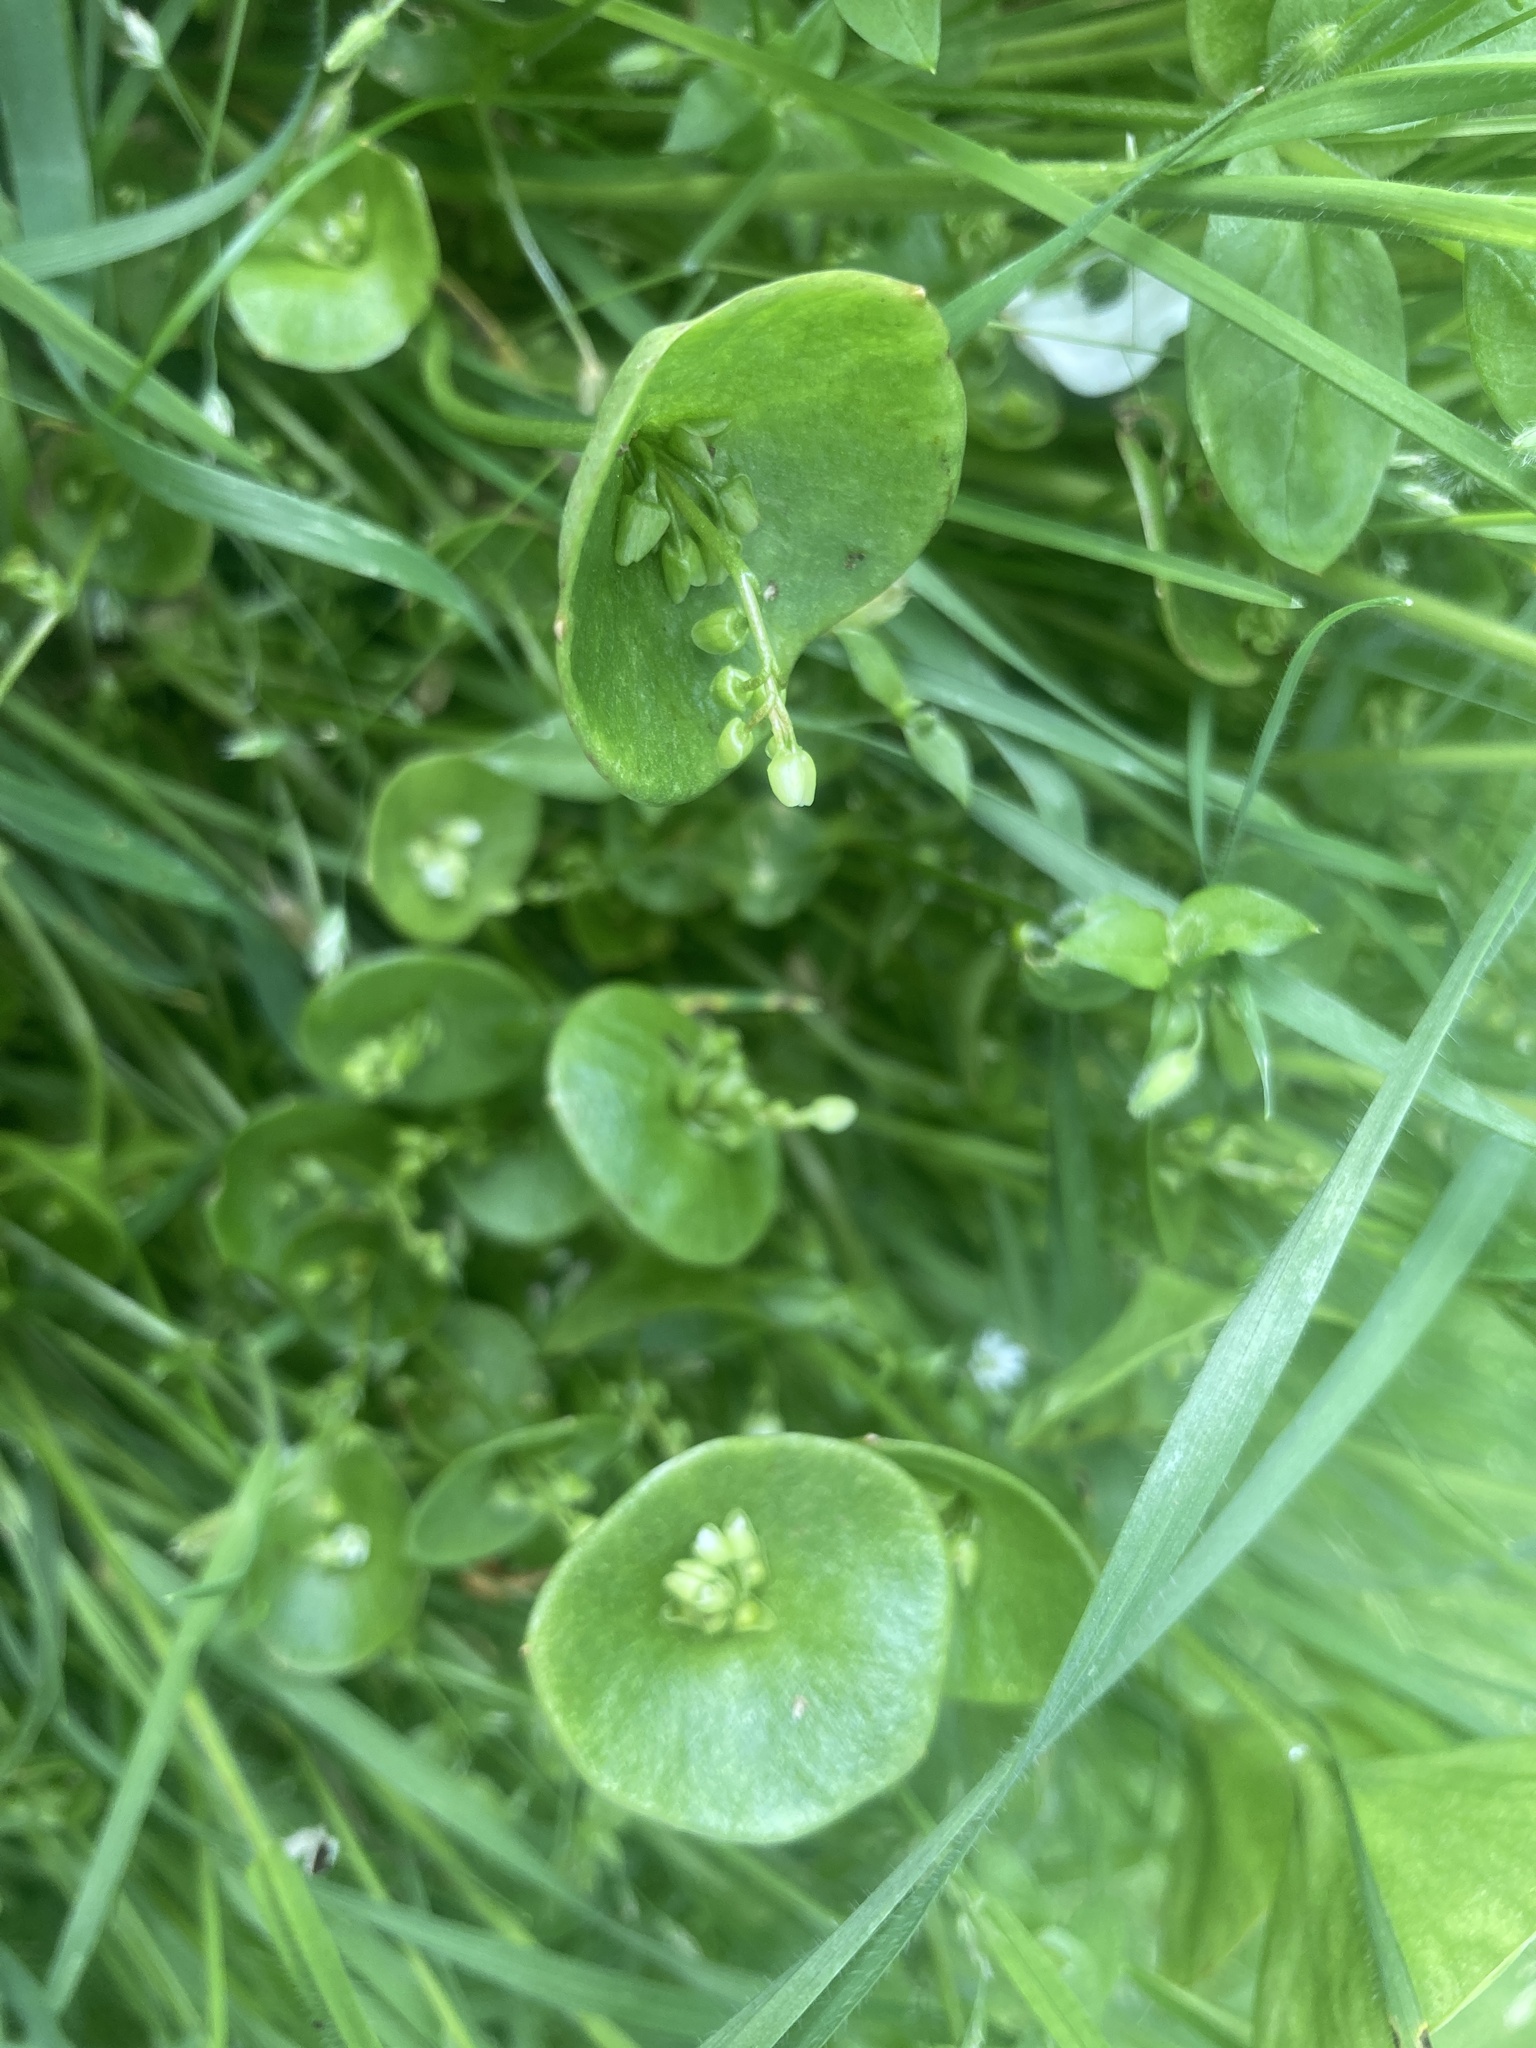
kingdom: Plantae
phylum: Tracheophyta
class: Magnoliopsida
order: Caryophyllales
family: Montiaceae
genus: Claytonia
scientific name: Claytonia perfoliata
